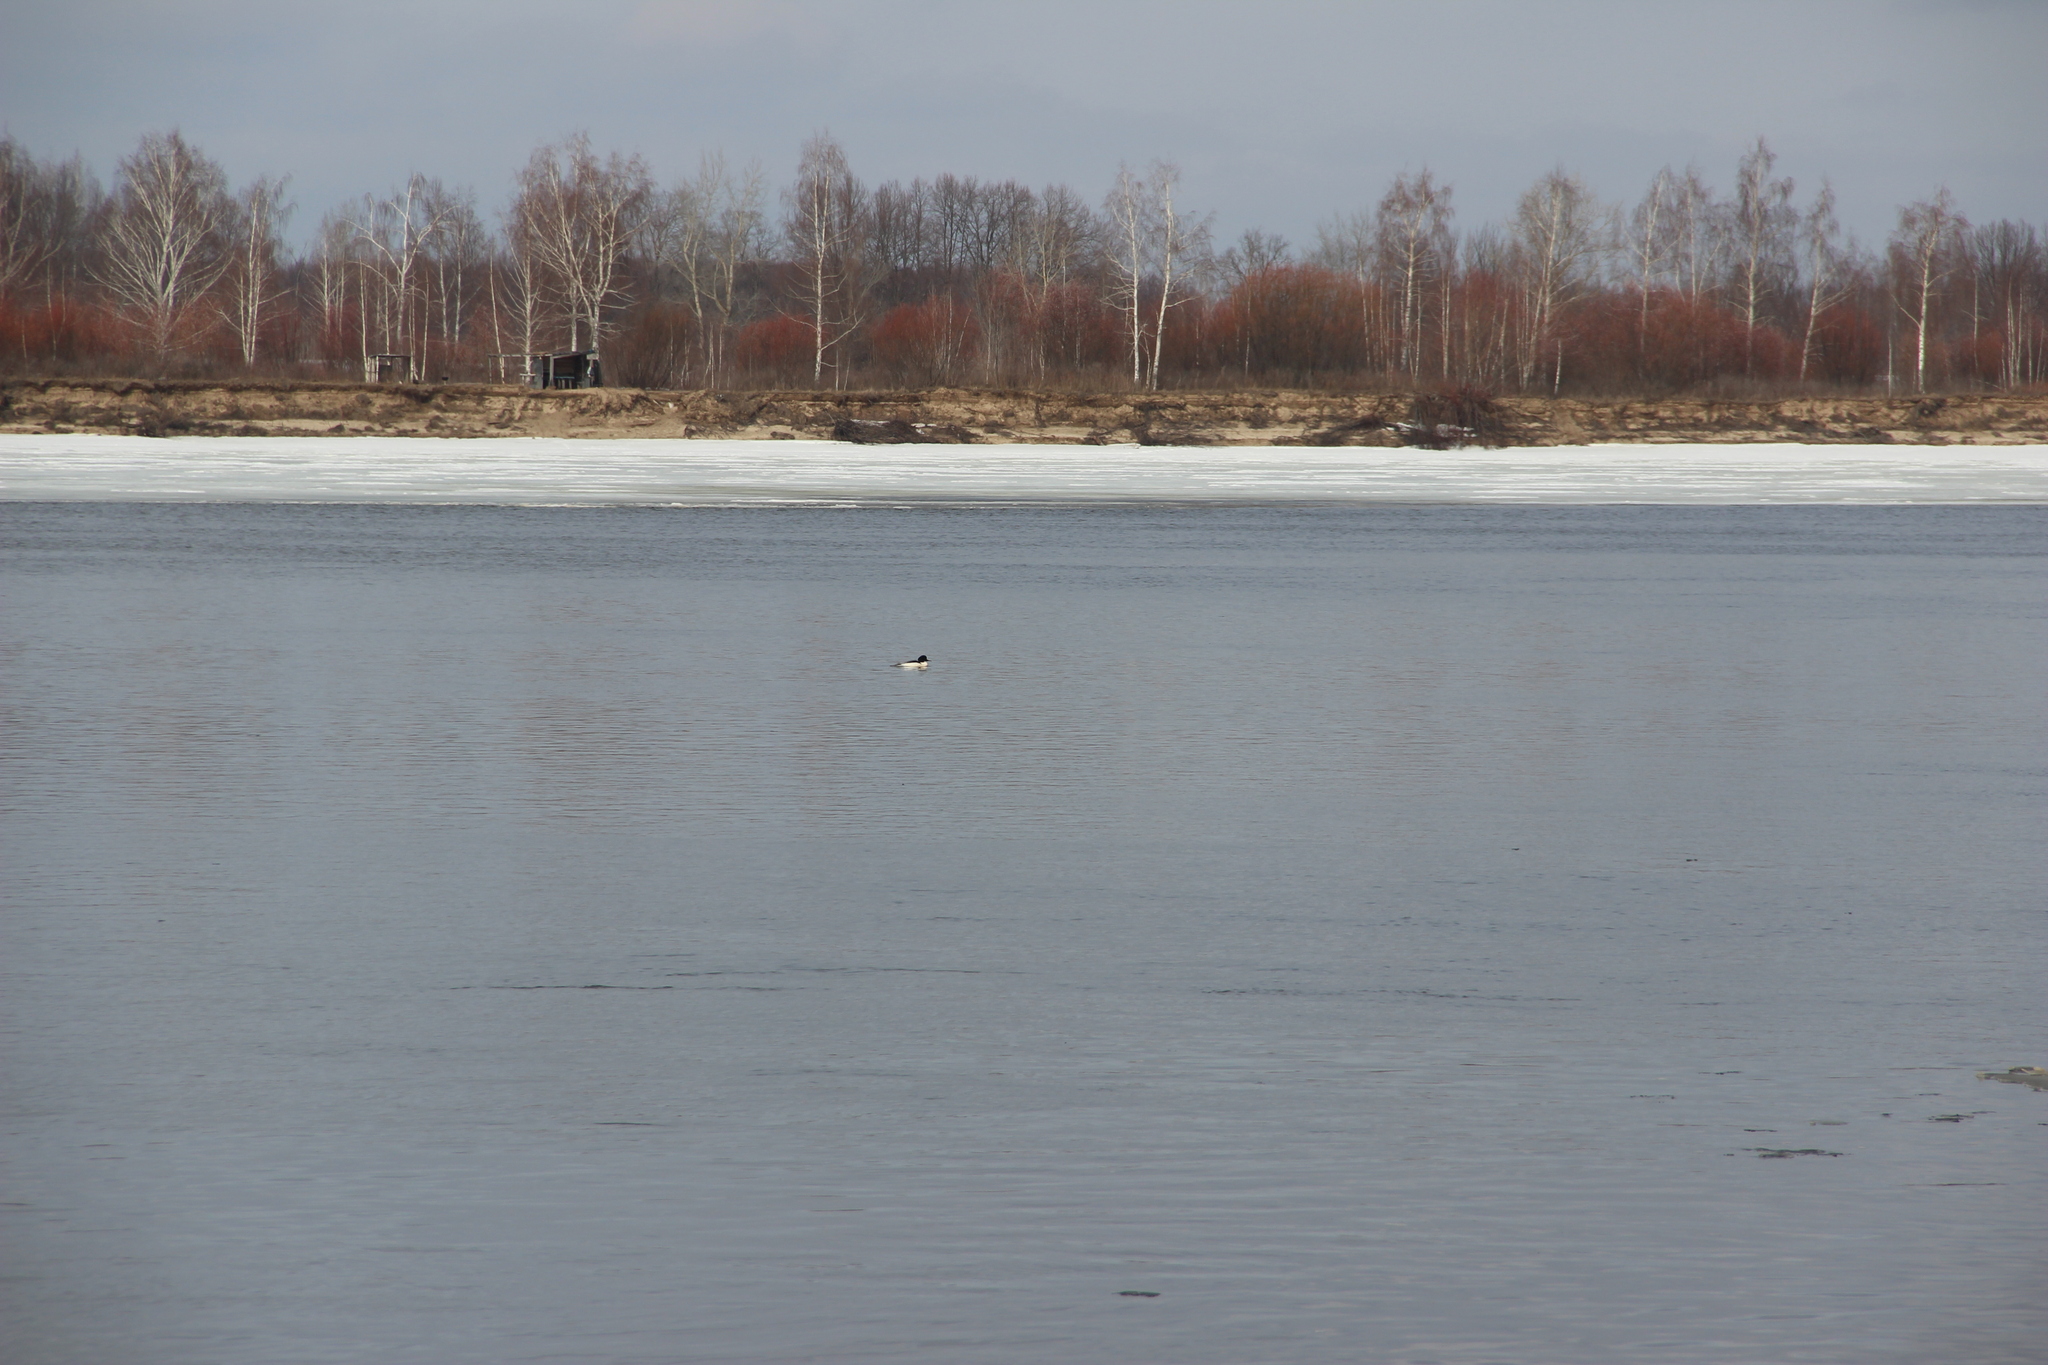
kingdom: Animalia
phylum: Chordata
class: Aves
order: Anseriformes
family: Anatidae
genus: Mergus
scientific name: Mergus merganser
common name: Common merganser
